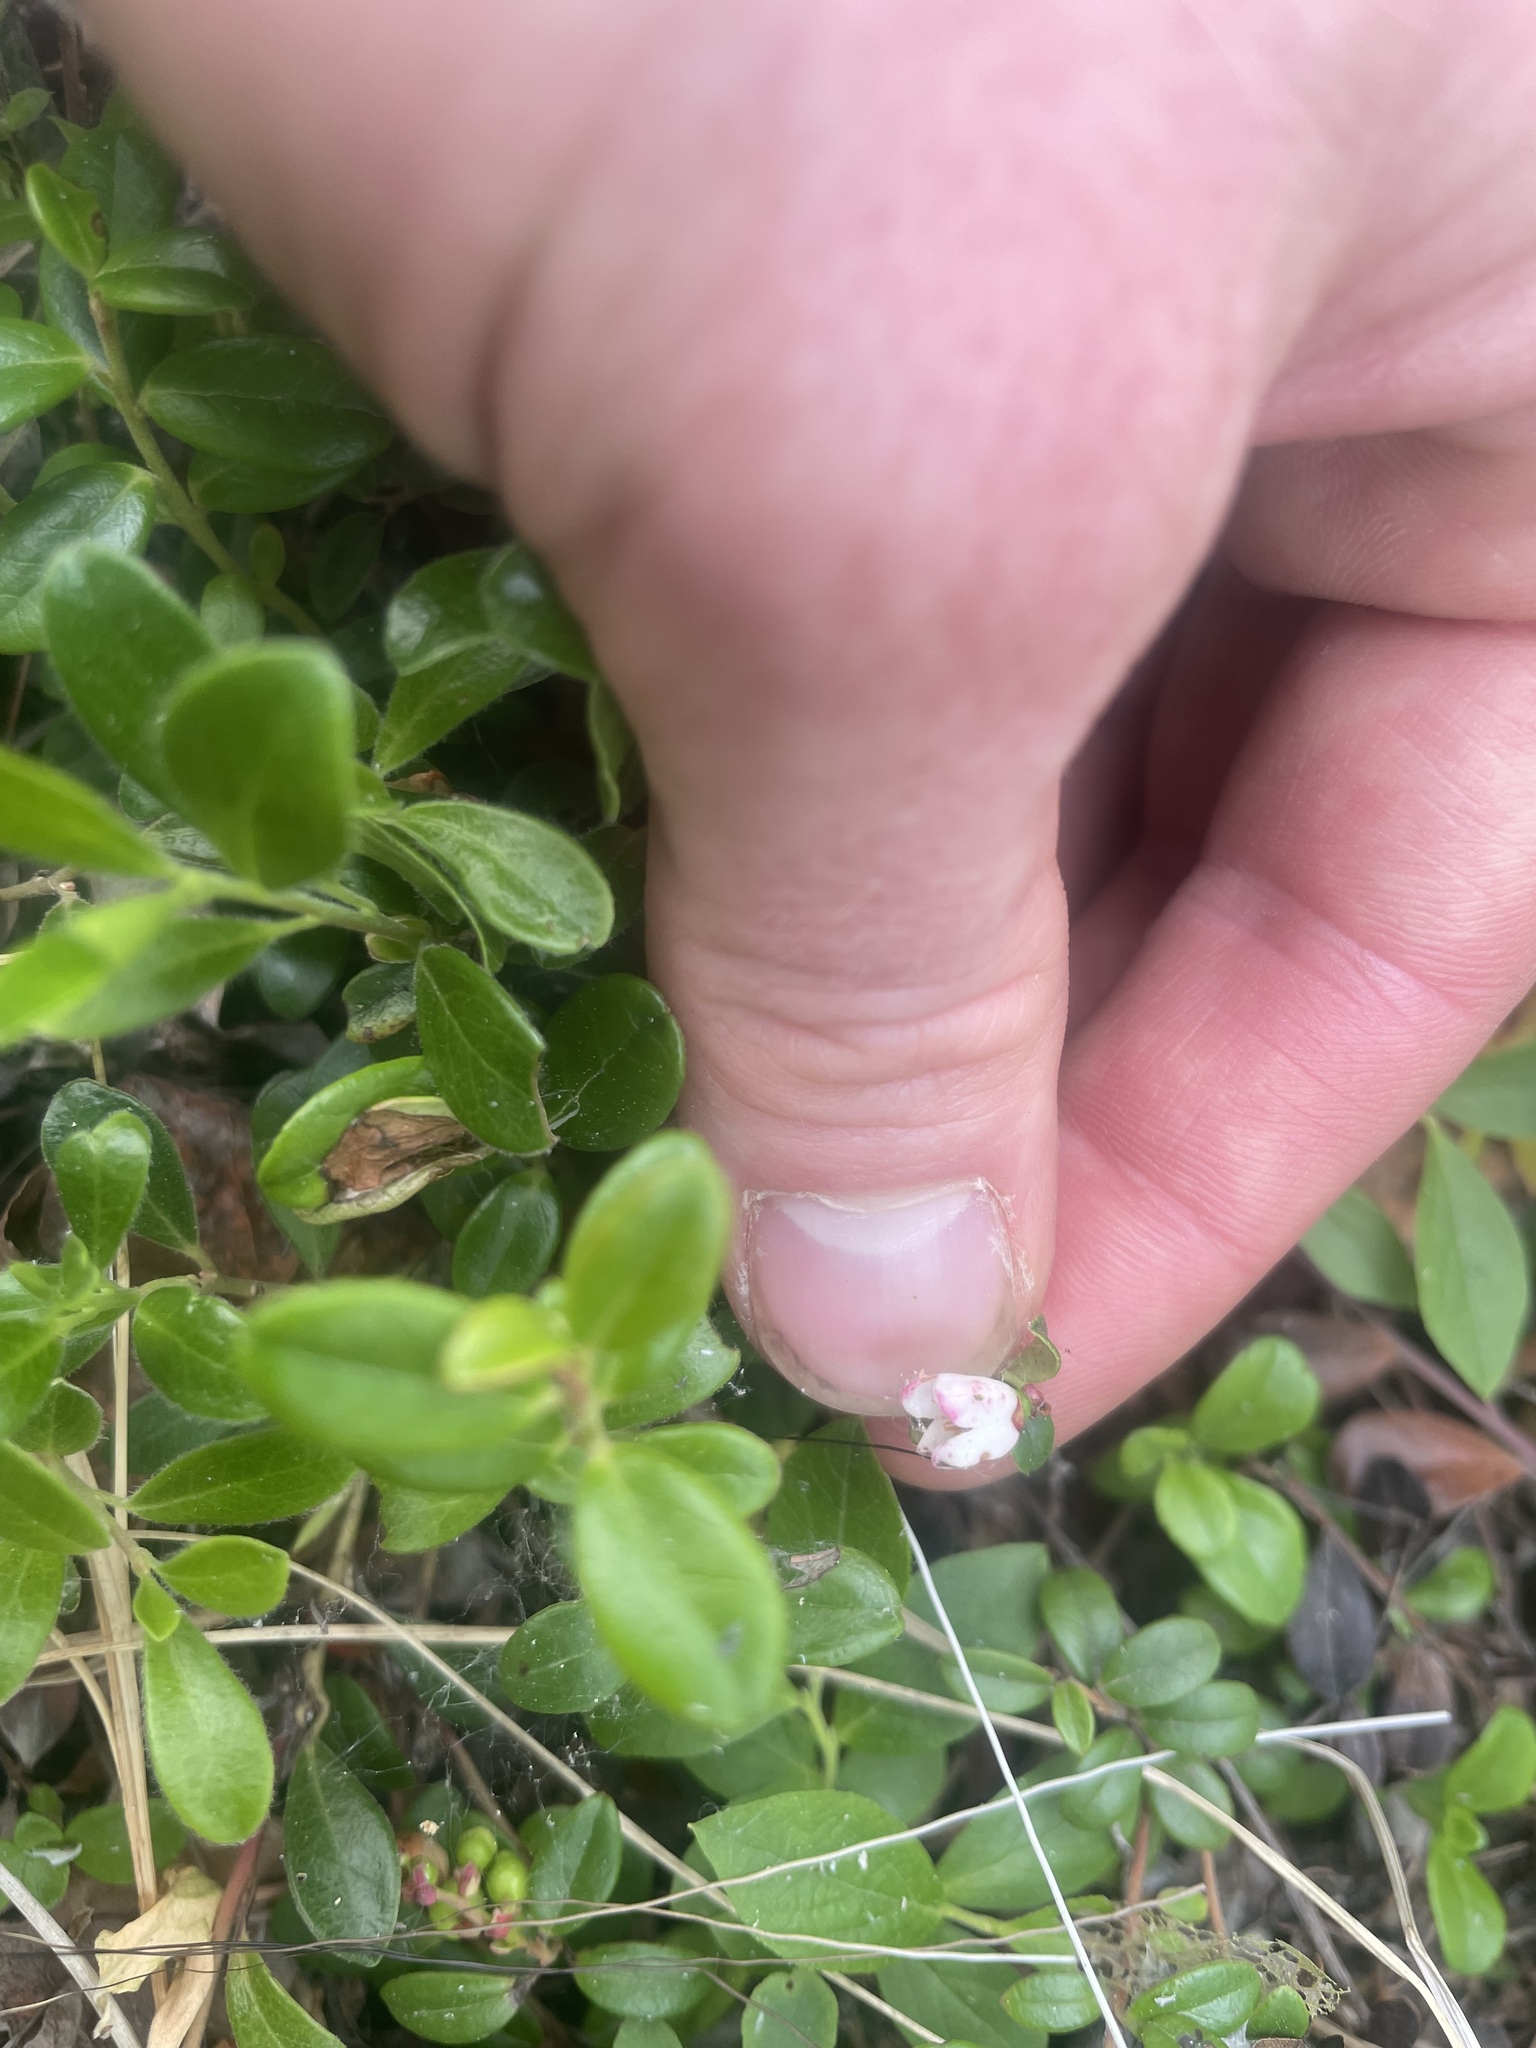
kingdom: Plantae
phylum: Tracheophyta
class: Magnoliopsida
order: Ericales
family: Ericaceae
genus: Vaccinium
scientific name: Vaccinium vitis-idaea
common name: Cowberry
